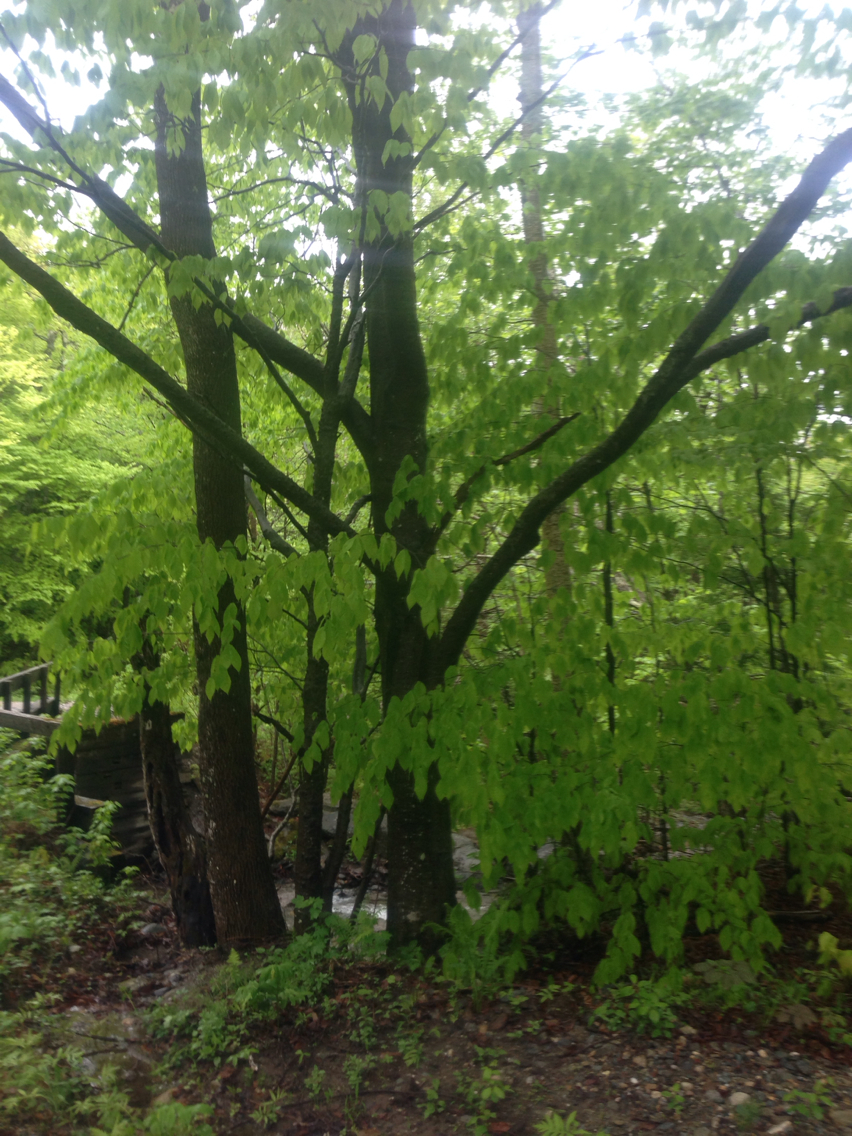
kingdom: Plantae
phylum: Tracheophyta
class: Magnoliopsida
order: Fagales
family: Fagaceae
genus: Fagus
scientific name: Fagus grandifolia
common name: American beech
